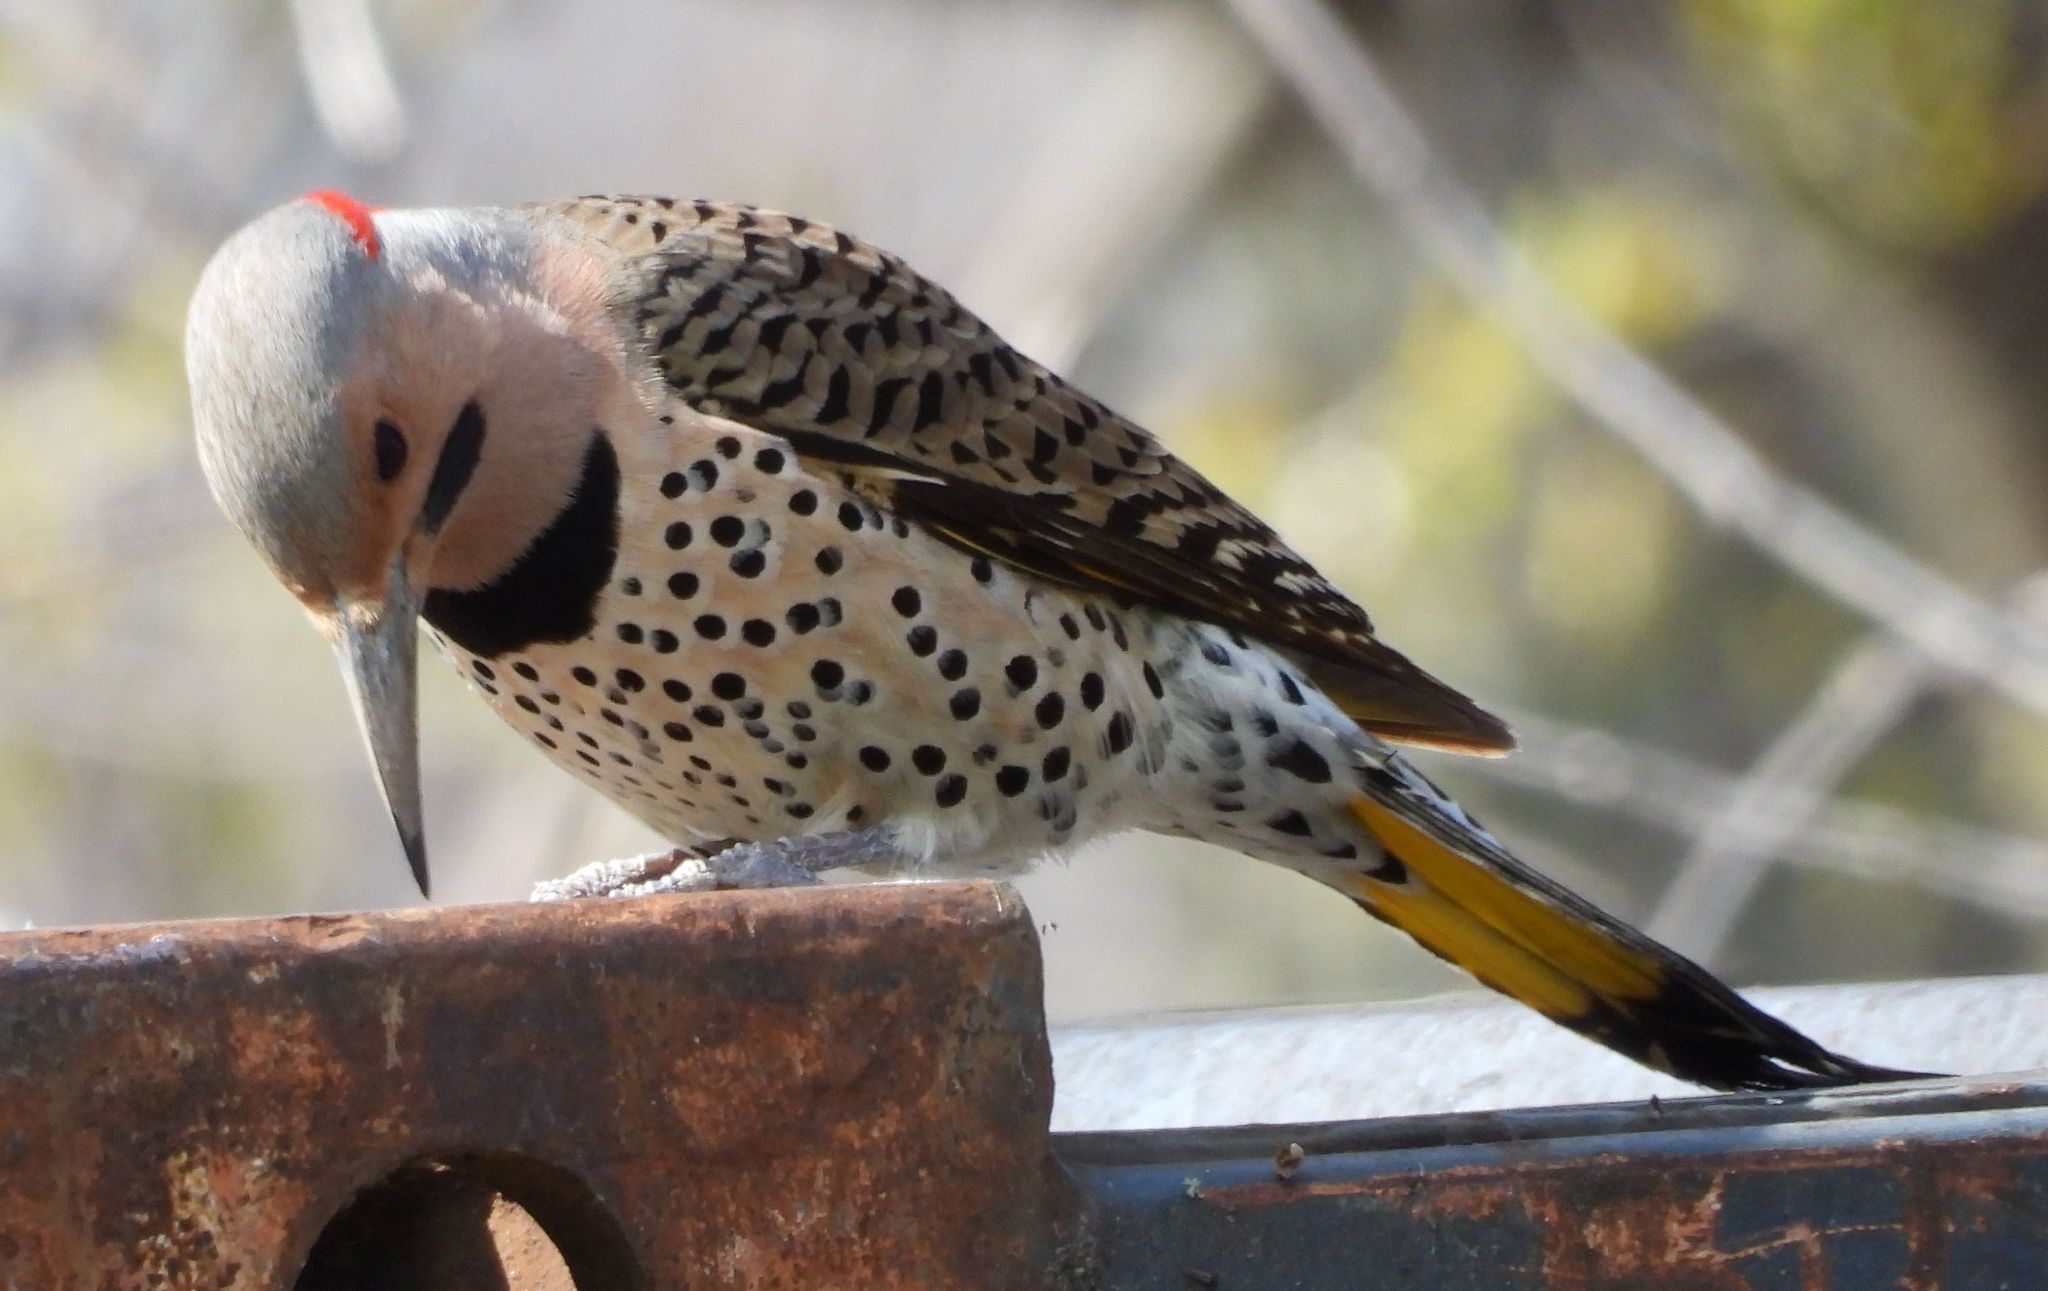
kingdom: Animalia
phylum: Chordata
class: Aves
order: Piciformes
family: Picidae
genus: Colaptes
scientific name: Colaptes auratus
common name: Northern flicker
